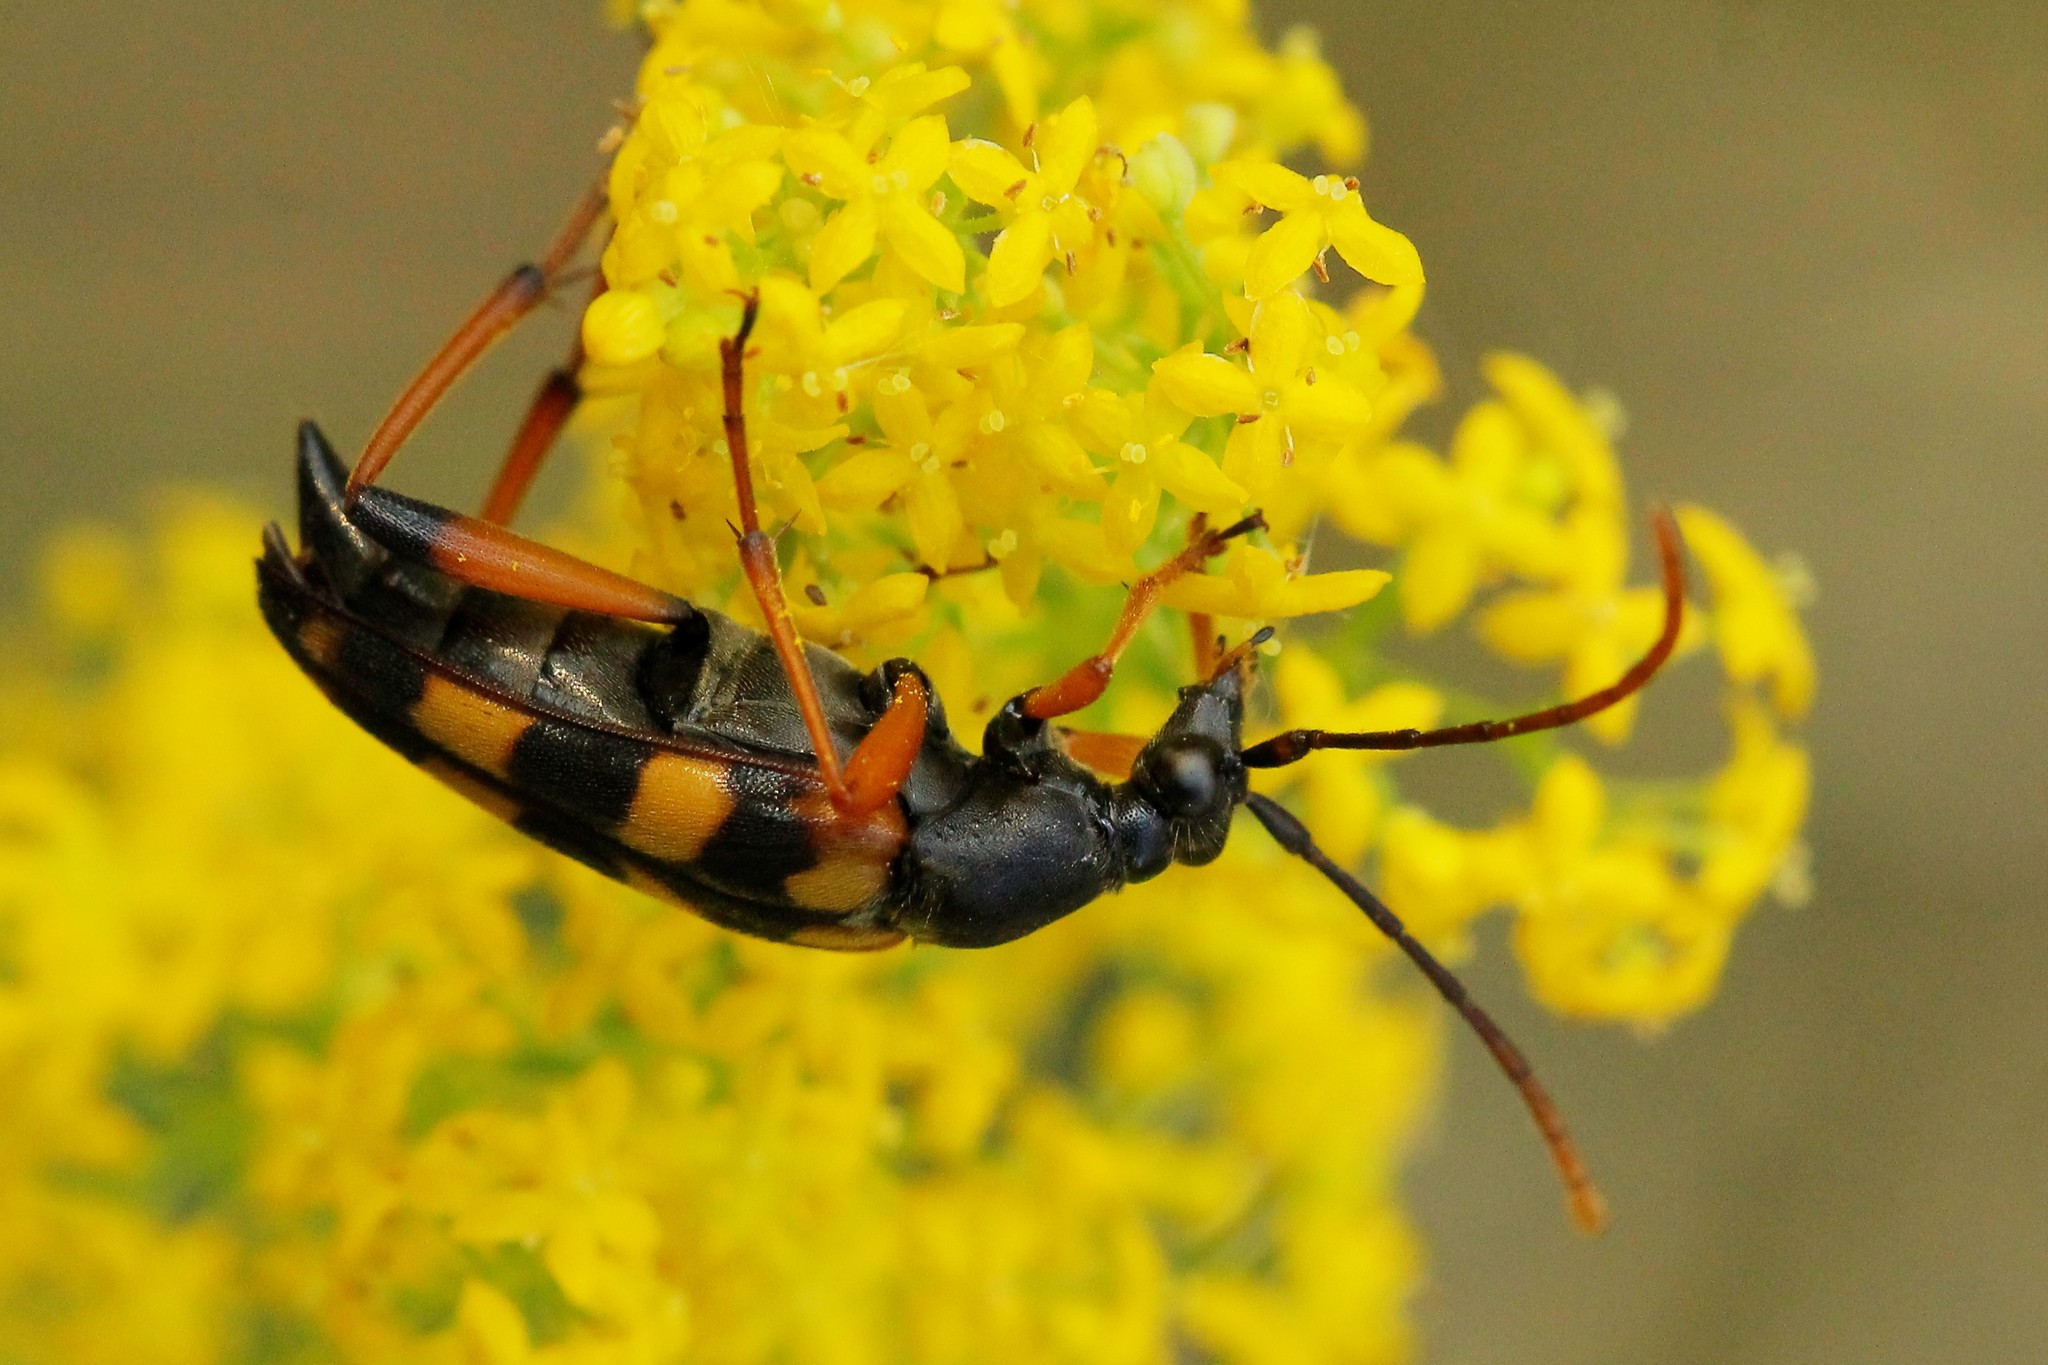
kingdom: Animalia
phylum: Arthropoda
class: Insecta
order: Coleoptera
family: Cerambycidae
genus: Strangalia
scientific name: Strangalia attenuata
